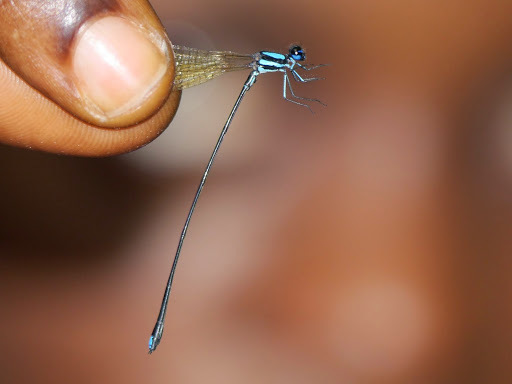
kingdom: Animalia
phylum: Arthropoda
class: Insecta
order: Odonata
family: Platycnemididae
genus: Allocnemis
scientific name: Allocnemis superba
